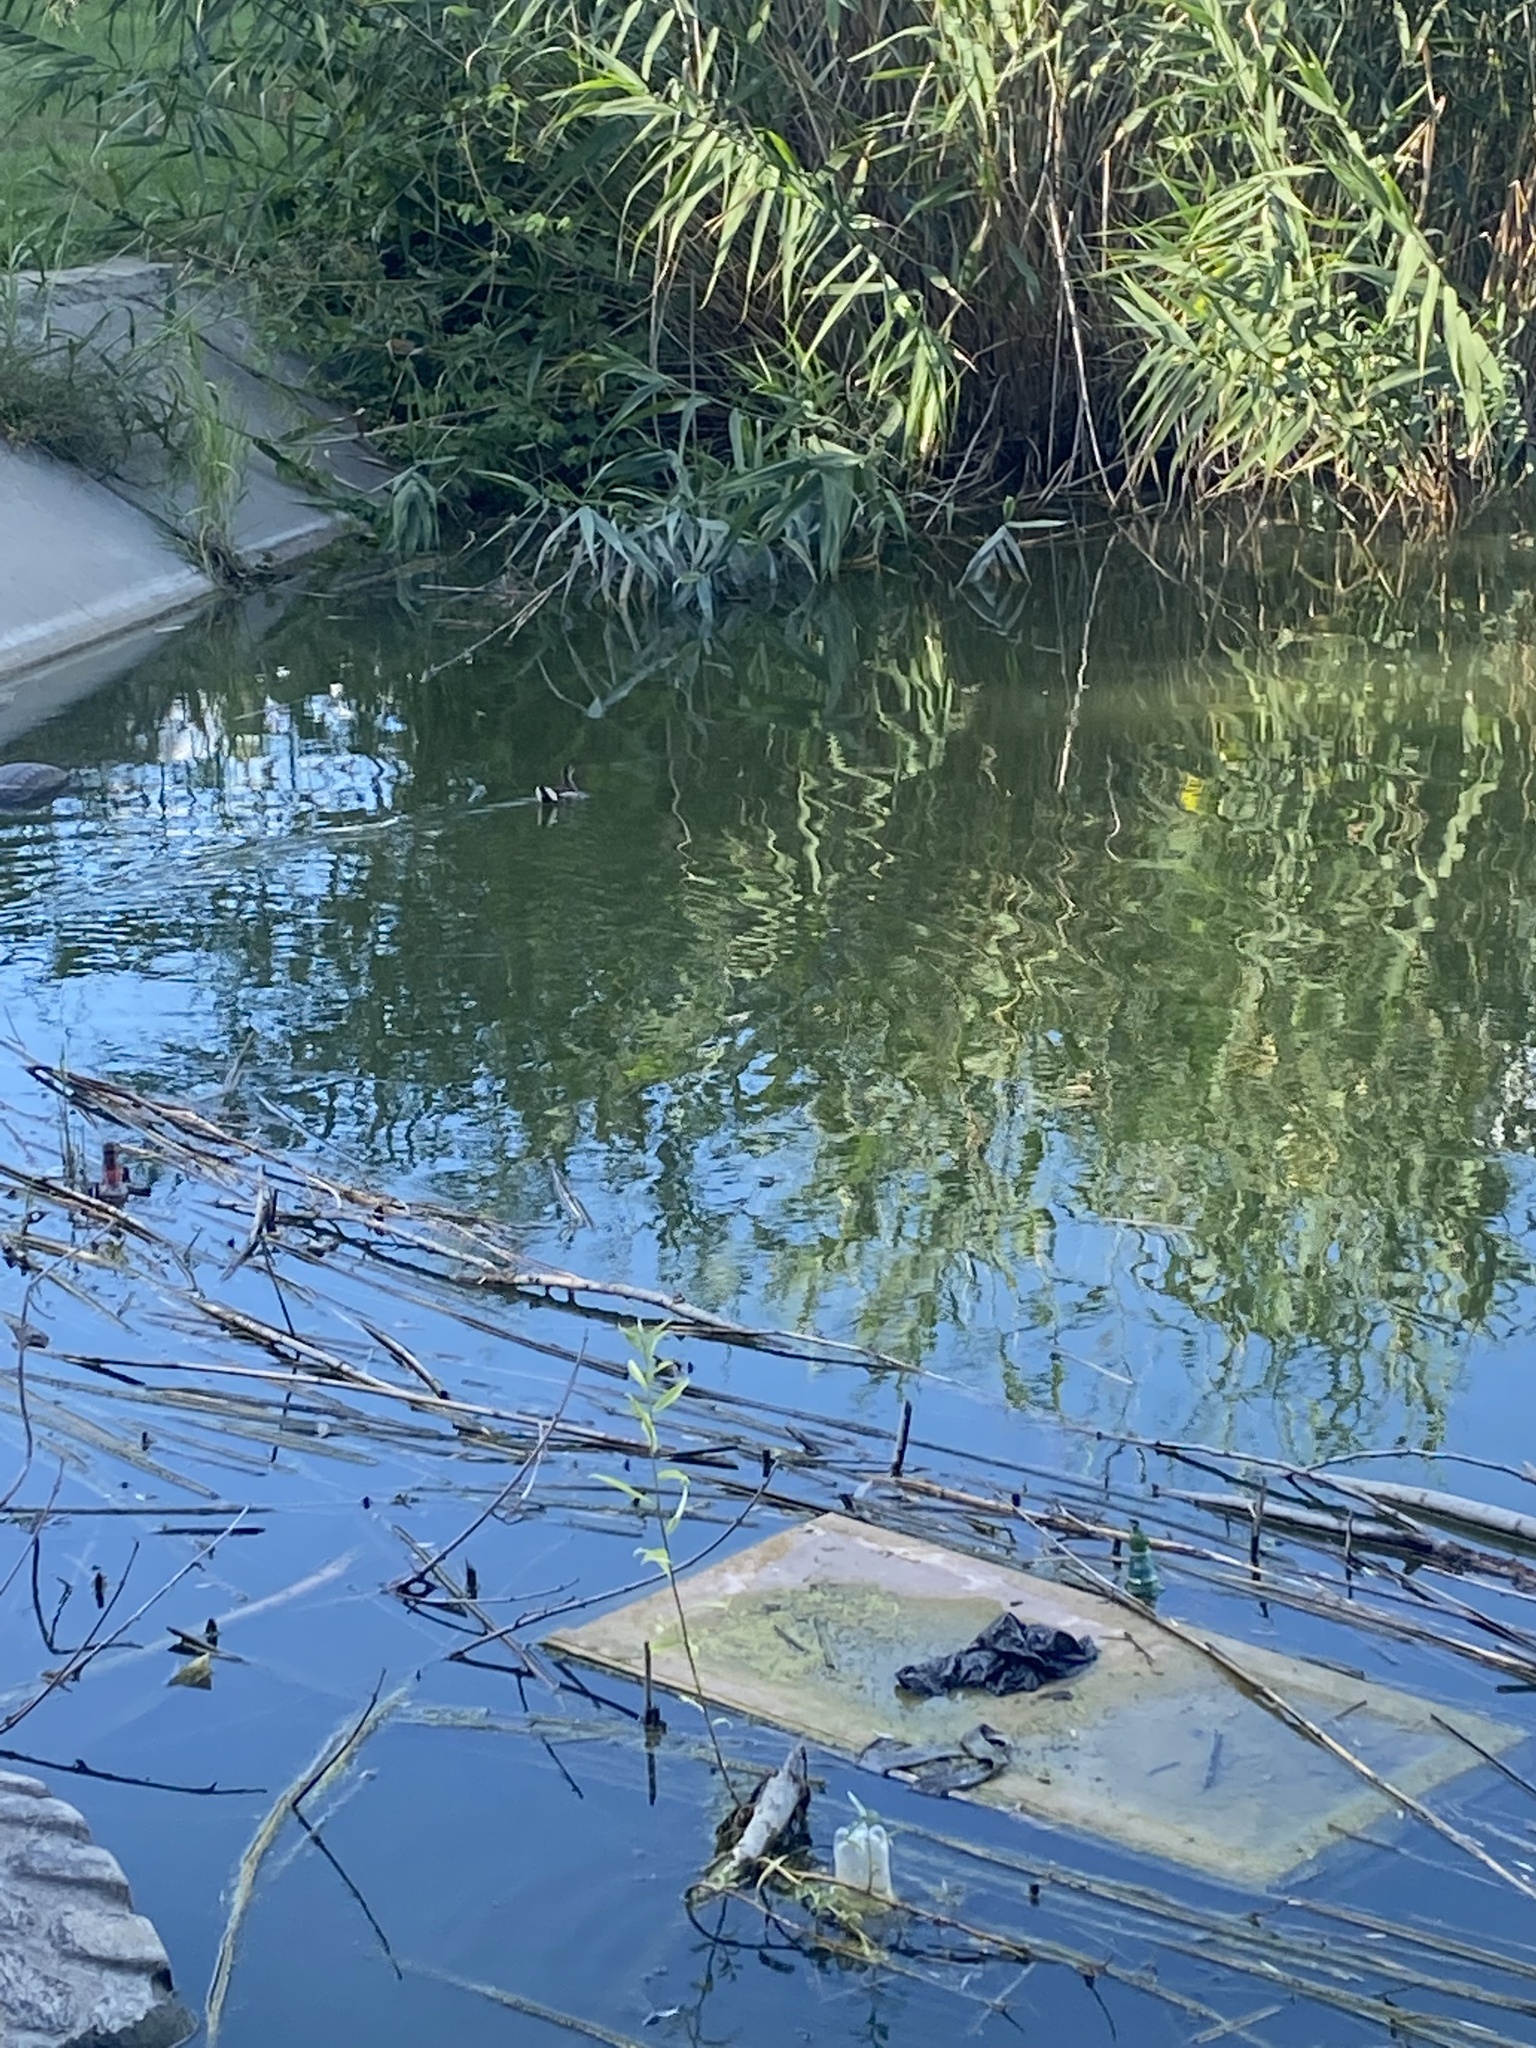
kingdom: Animalia
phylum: Chordata
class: Aves
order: Gruiformes
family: Rallidae
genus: Gallinula
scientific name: Gallinula chloropus
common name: Common moorhen
